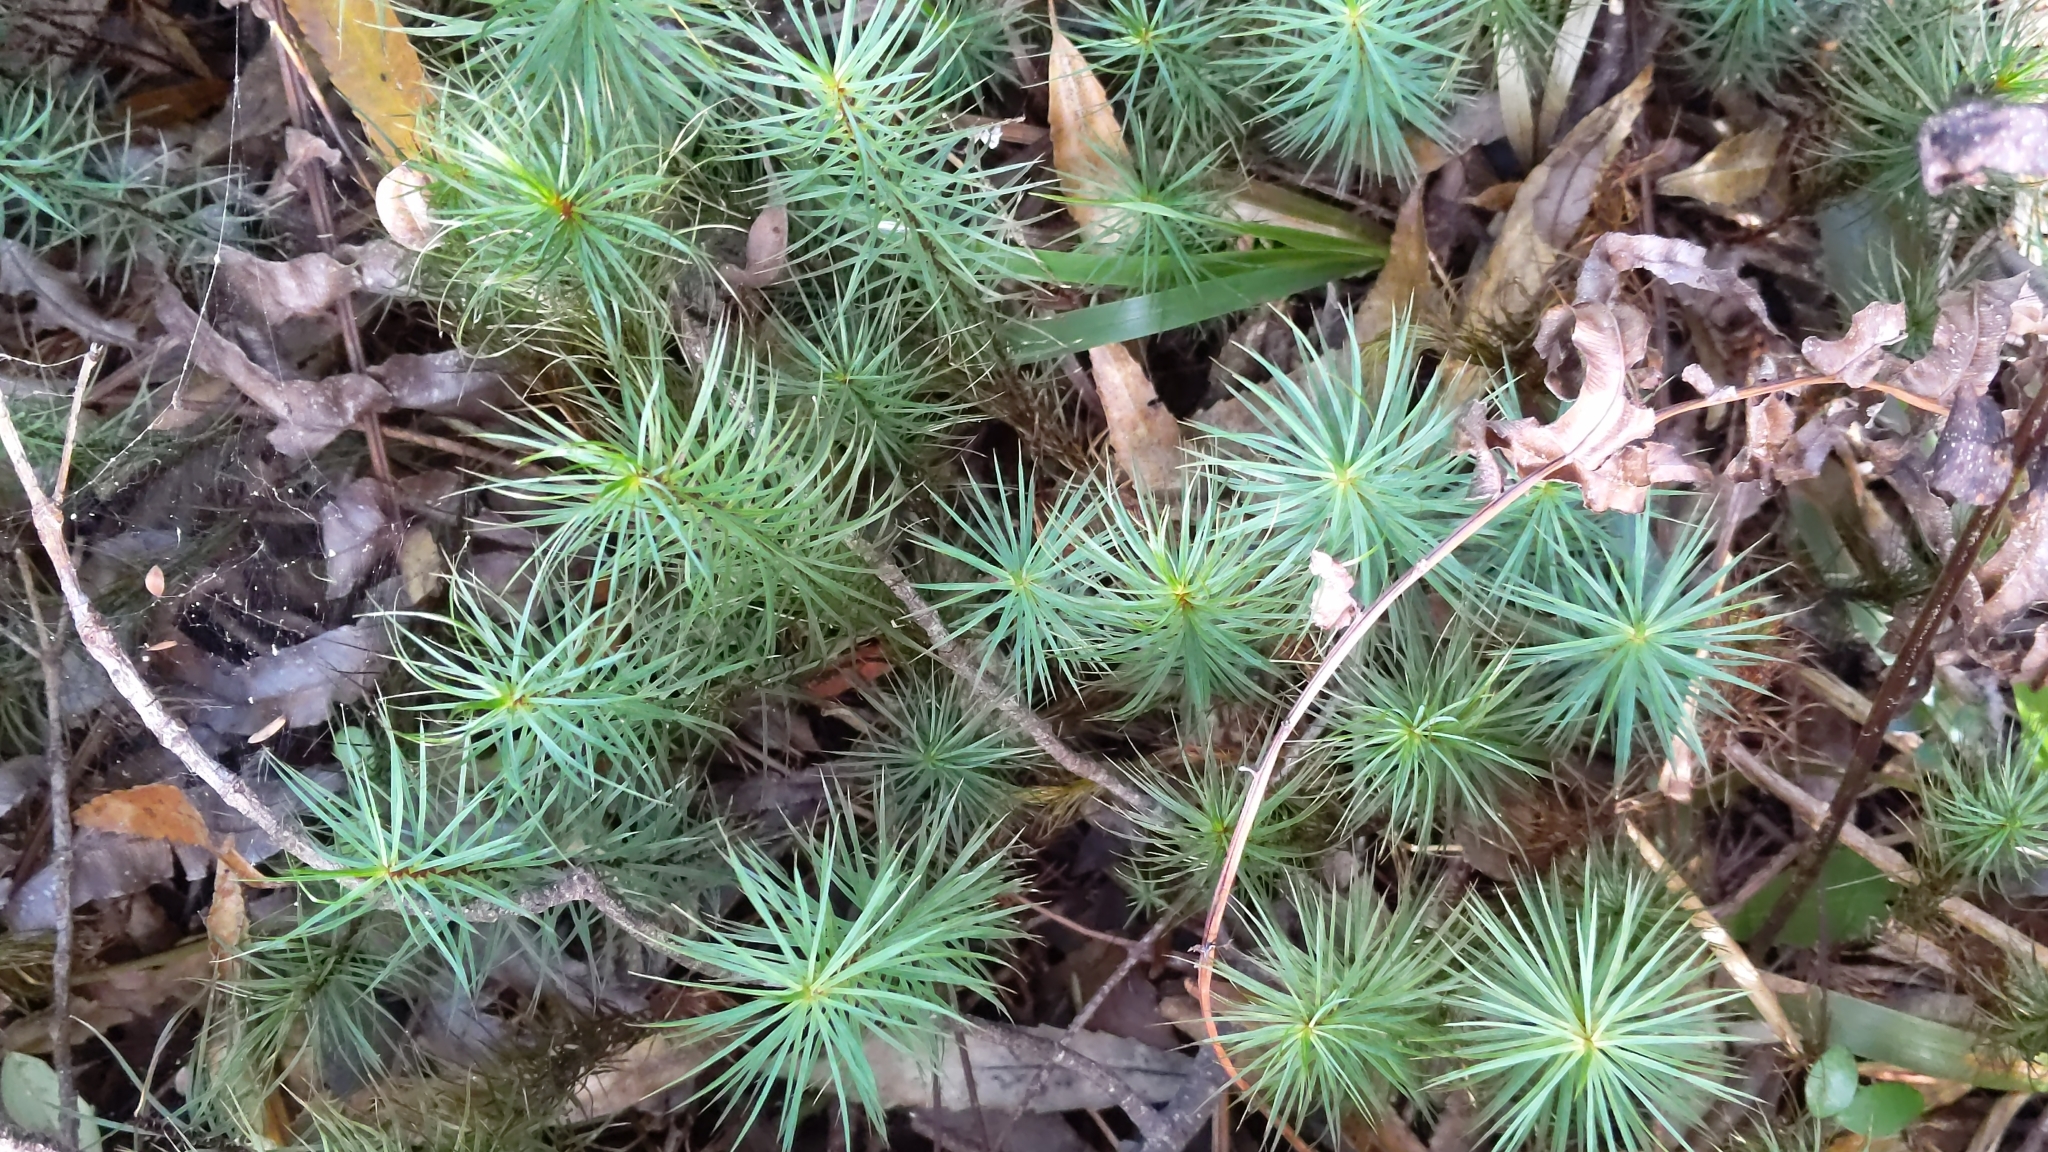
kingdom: Plantae
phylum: Bryophyta
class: Polytrichopsida
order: Polytrichales
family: Polytrichaceae
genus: Dawsonia
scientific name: Dawsonia superba
